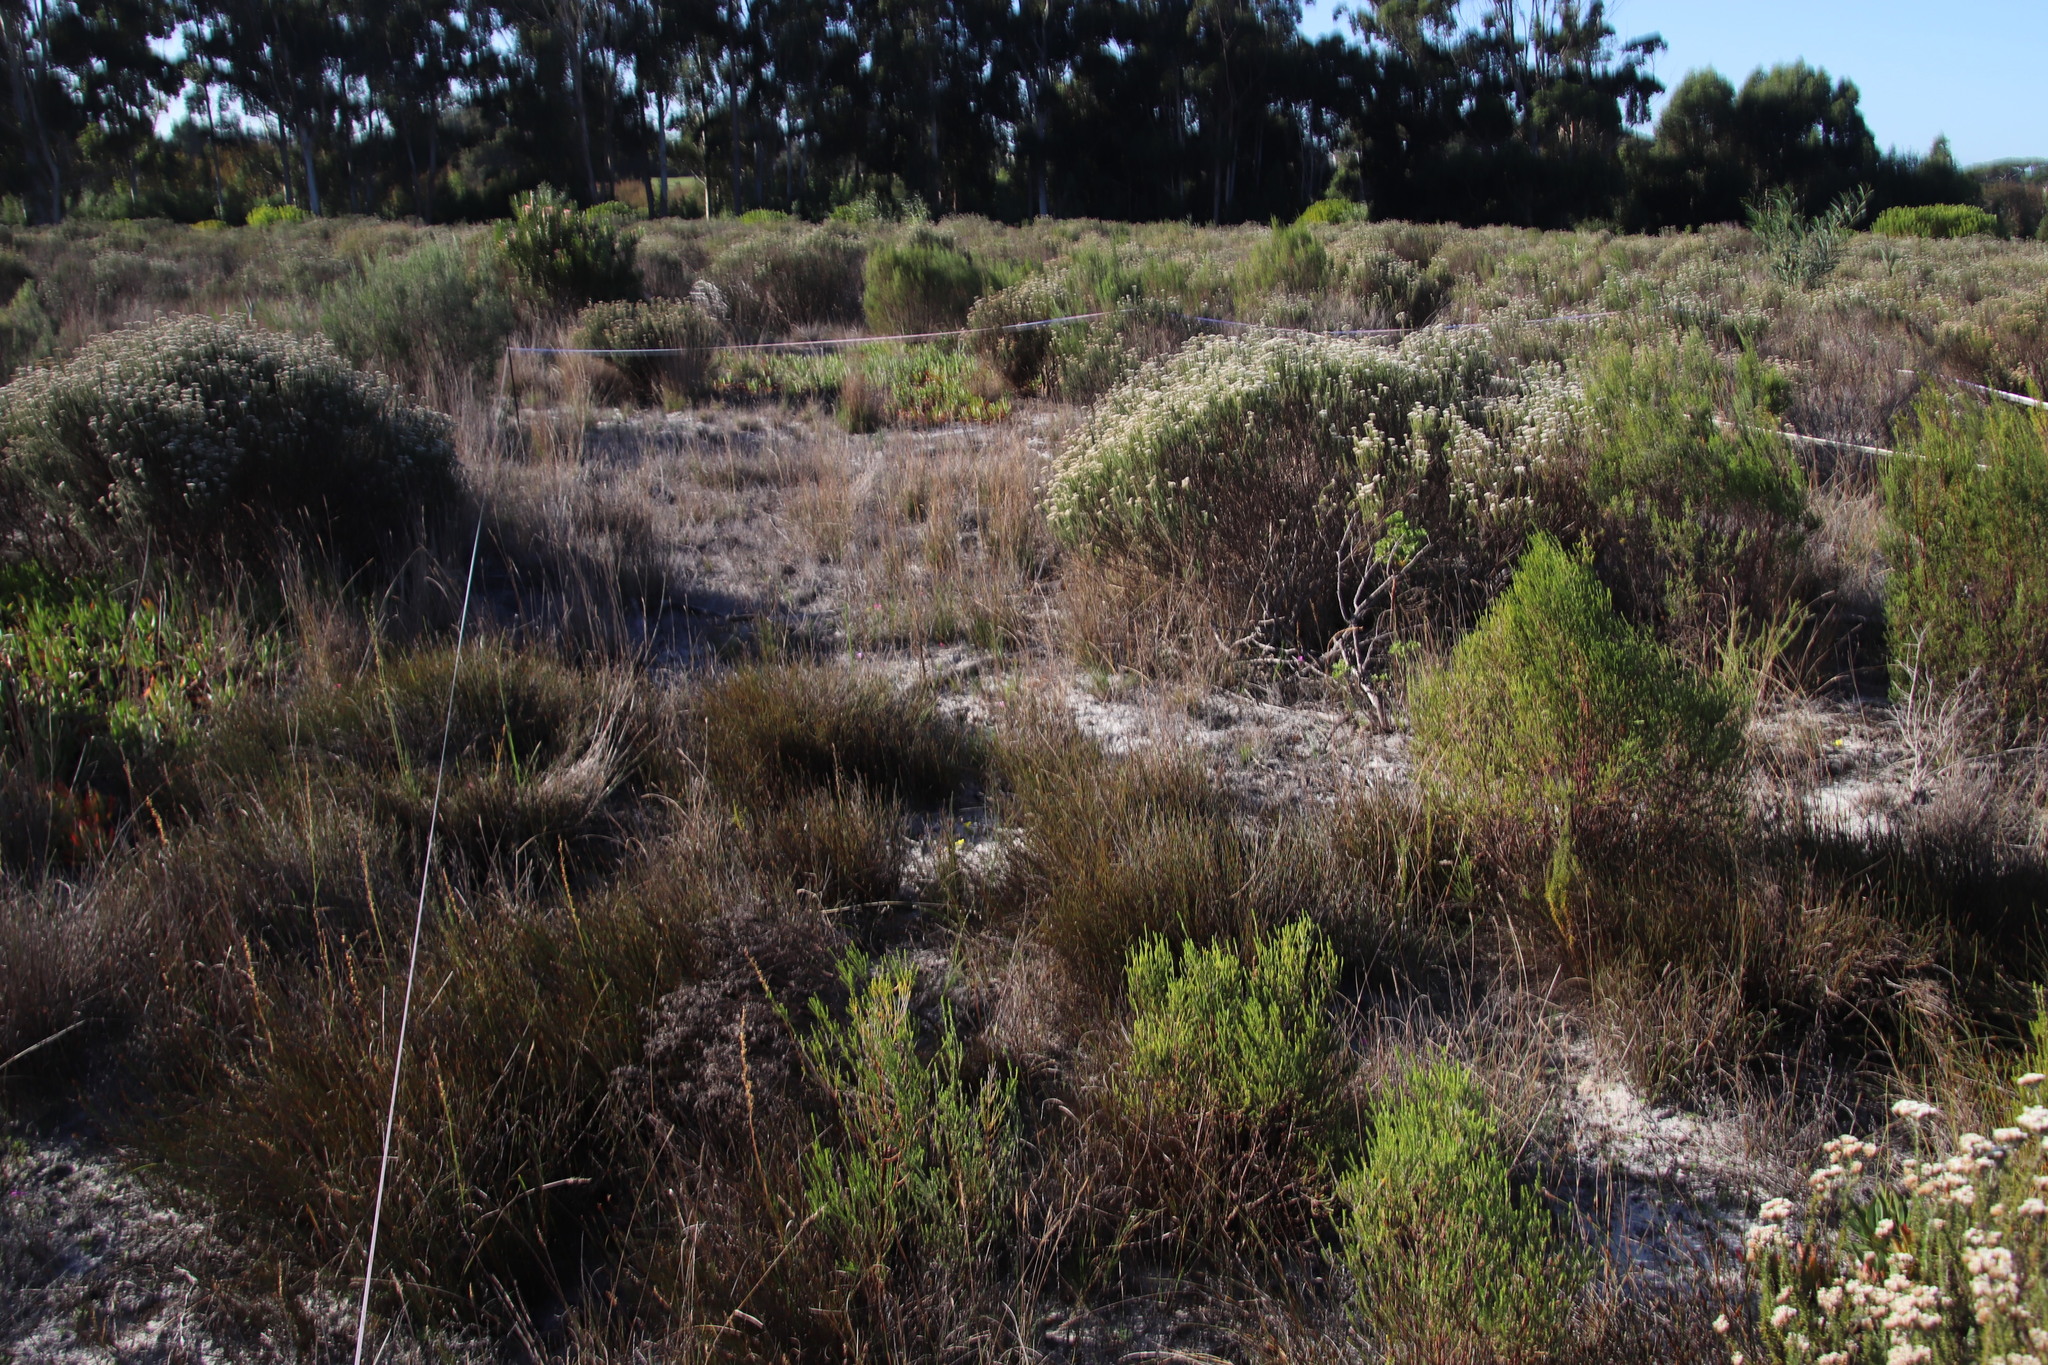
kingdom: Plantae
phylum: Tracheophyta
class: Liliopsida
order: Poales
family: Restionaceae
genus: Willdenowia
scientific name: Willdenowia sulcata
